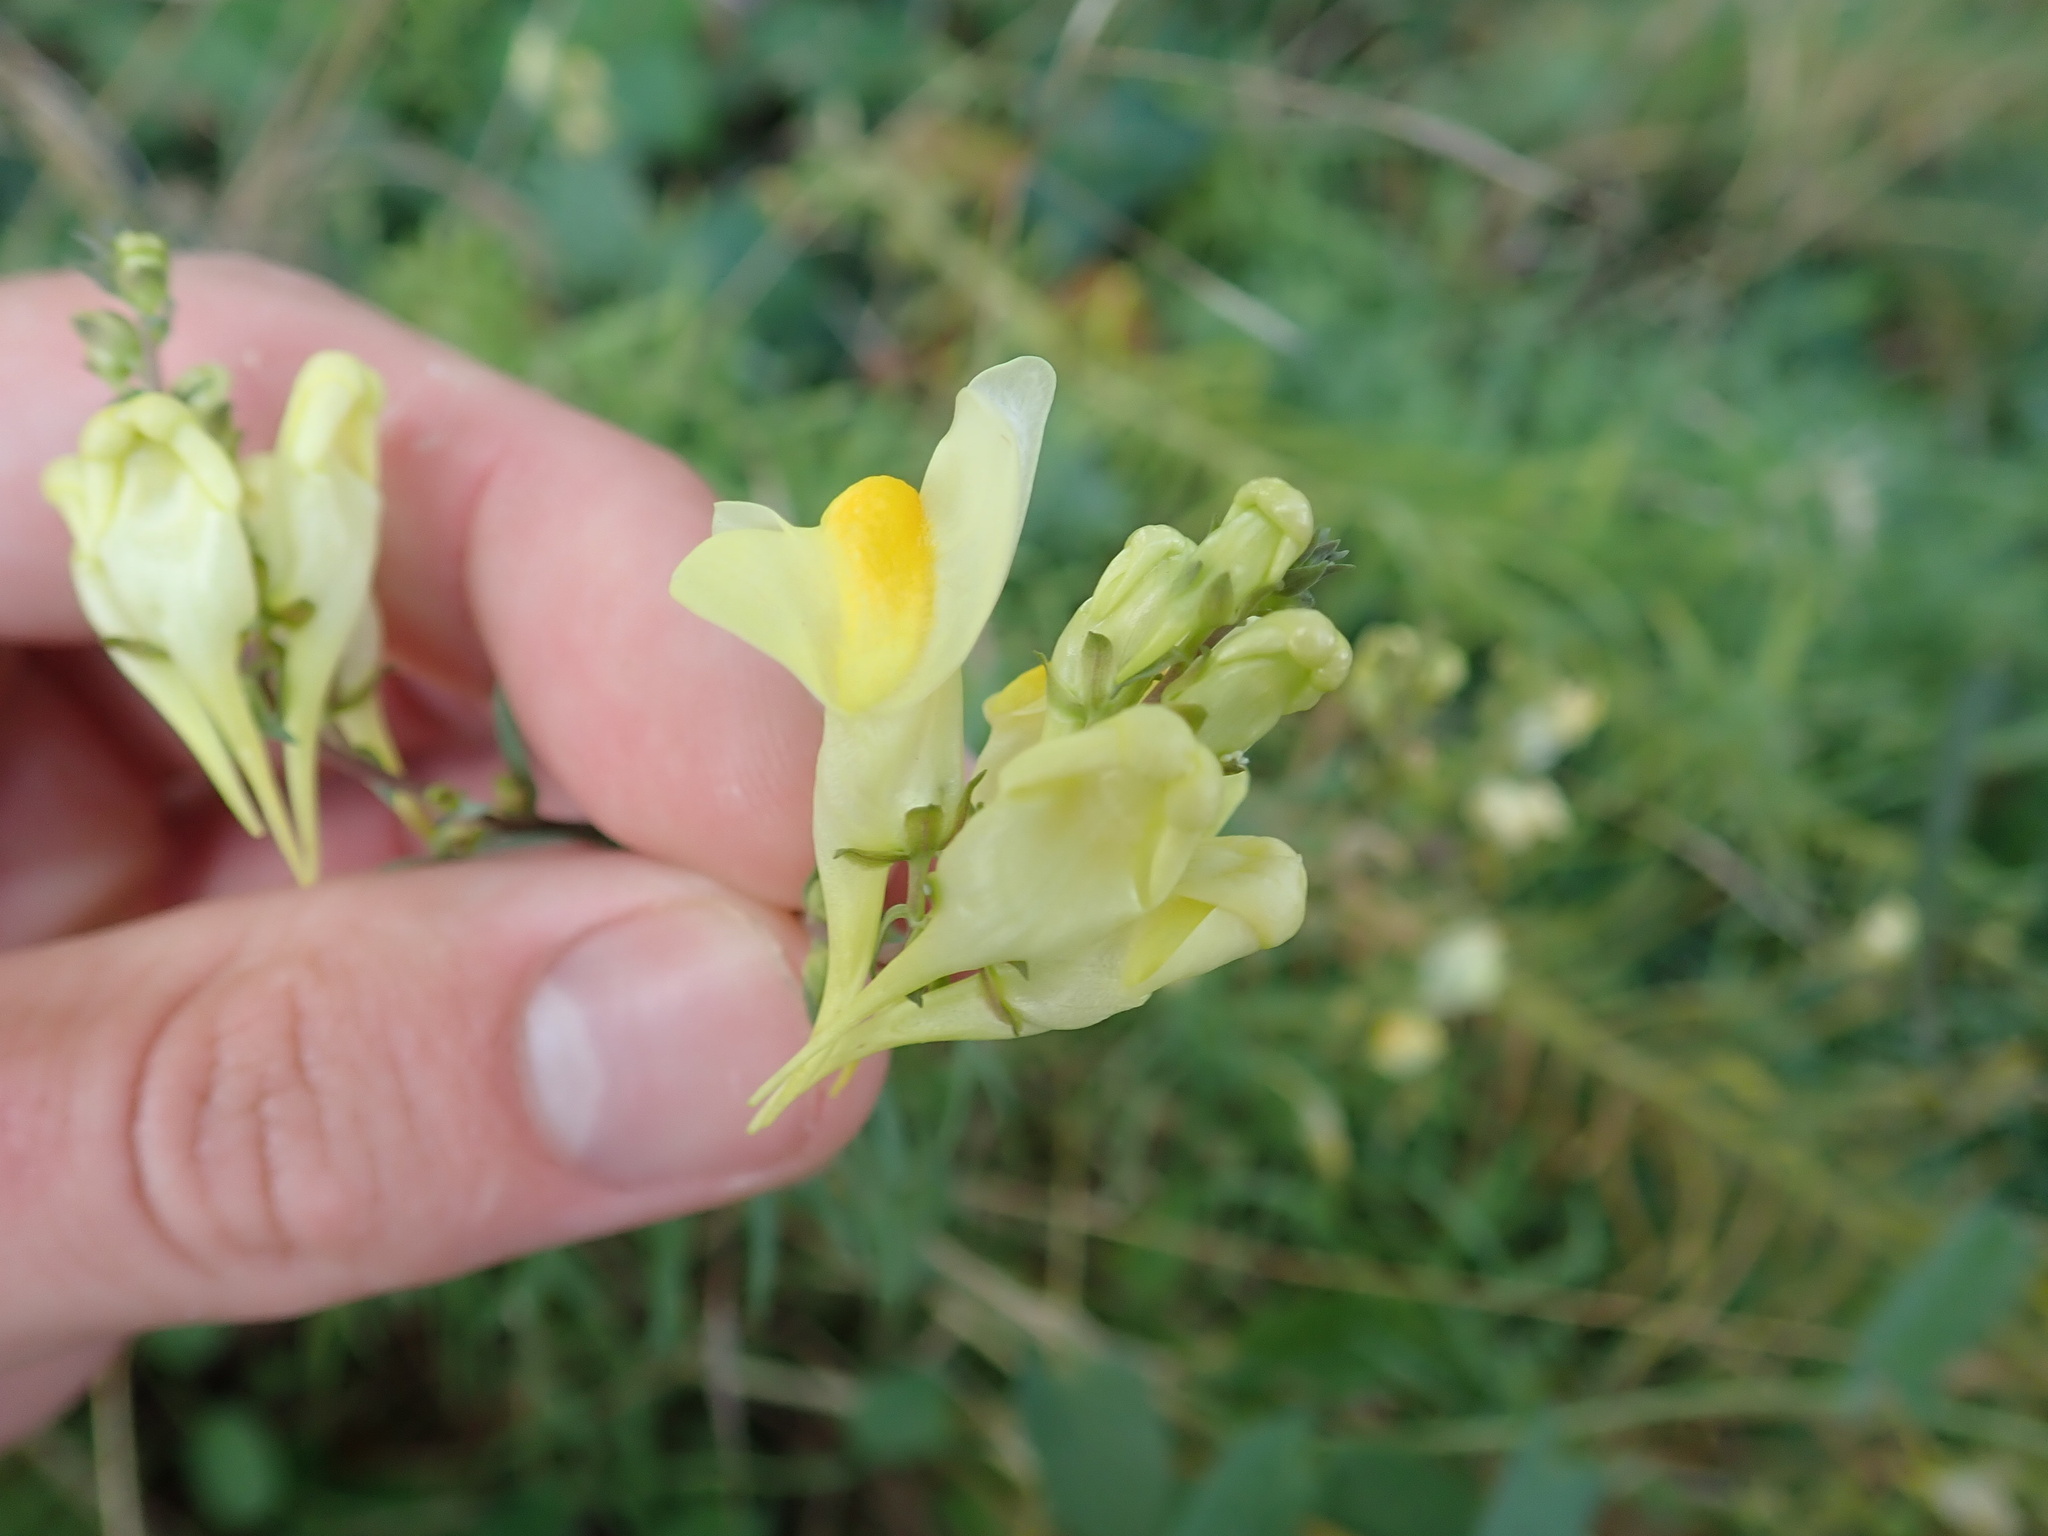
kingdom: Plantae
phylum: Tracheophyta
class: Magnoliopsida
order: Lamiales
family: Plantaginaceae
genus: Linaria
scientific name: Linaria vulgaris
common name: Butter and eggs
